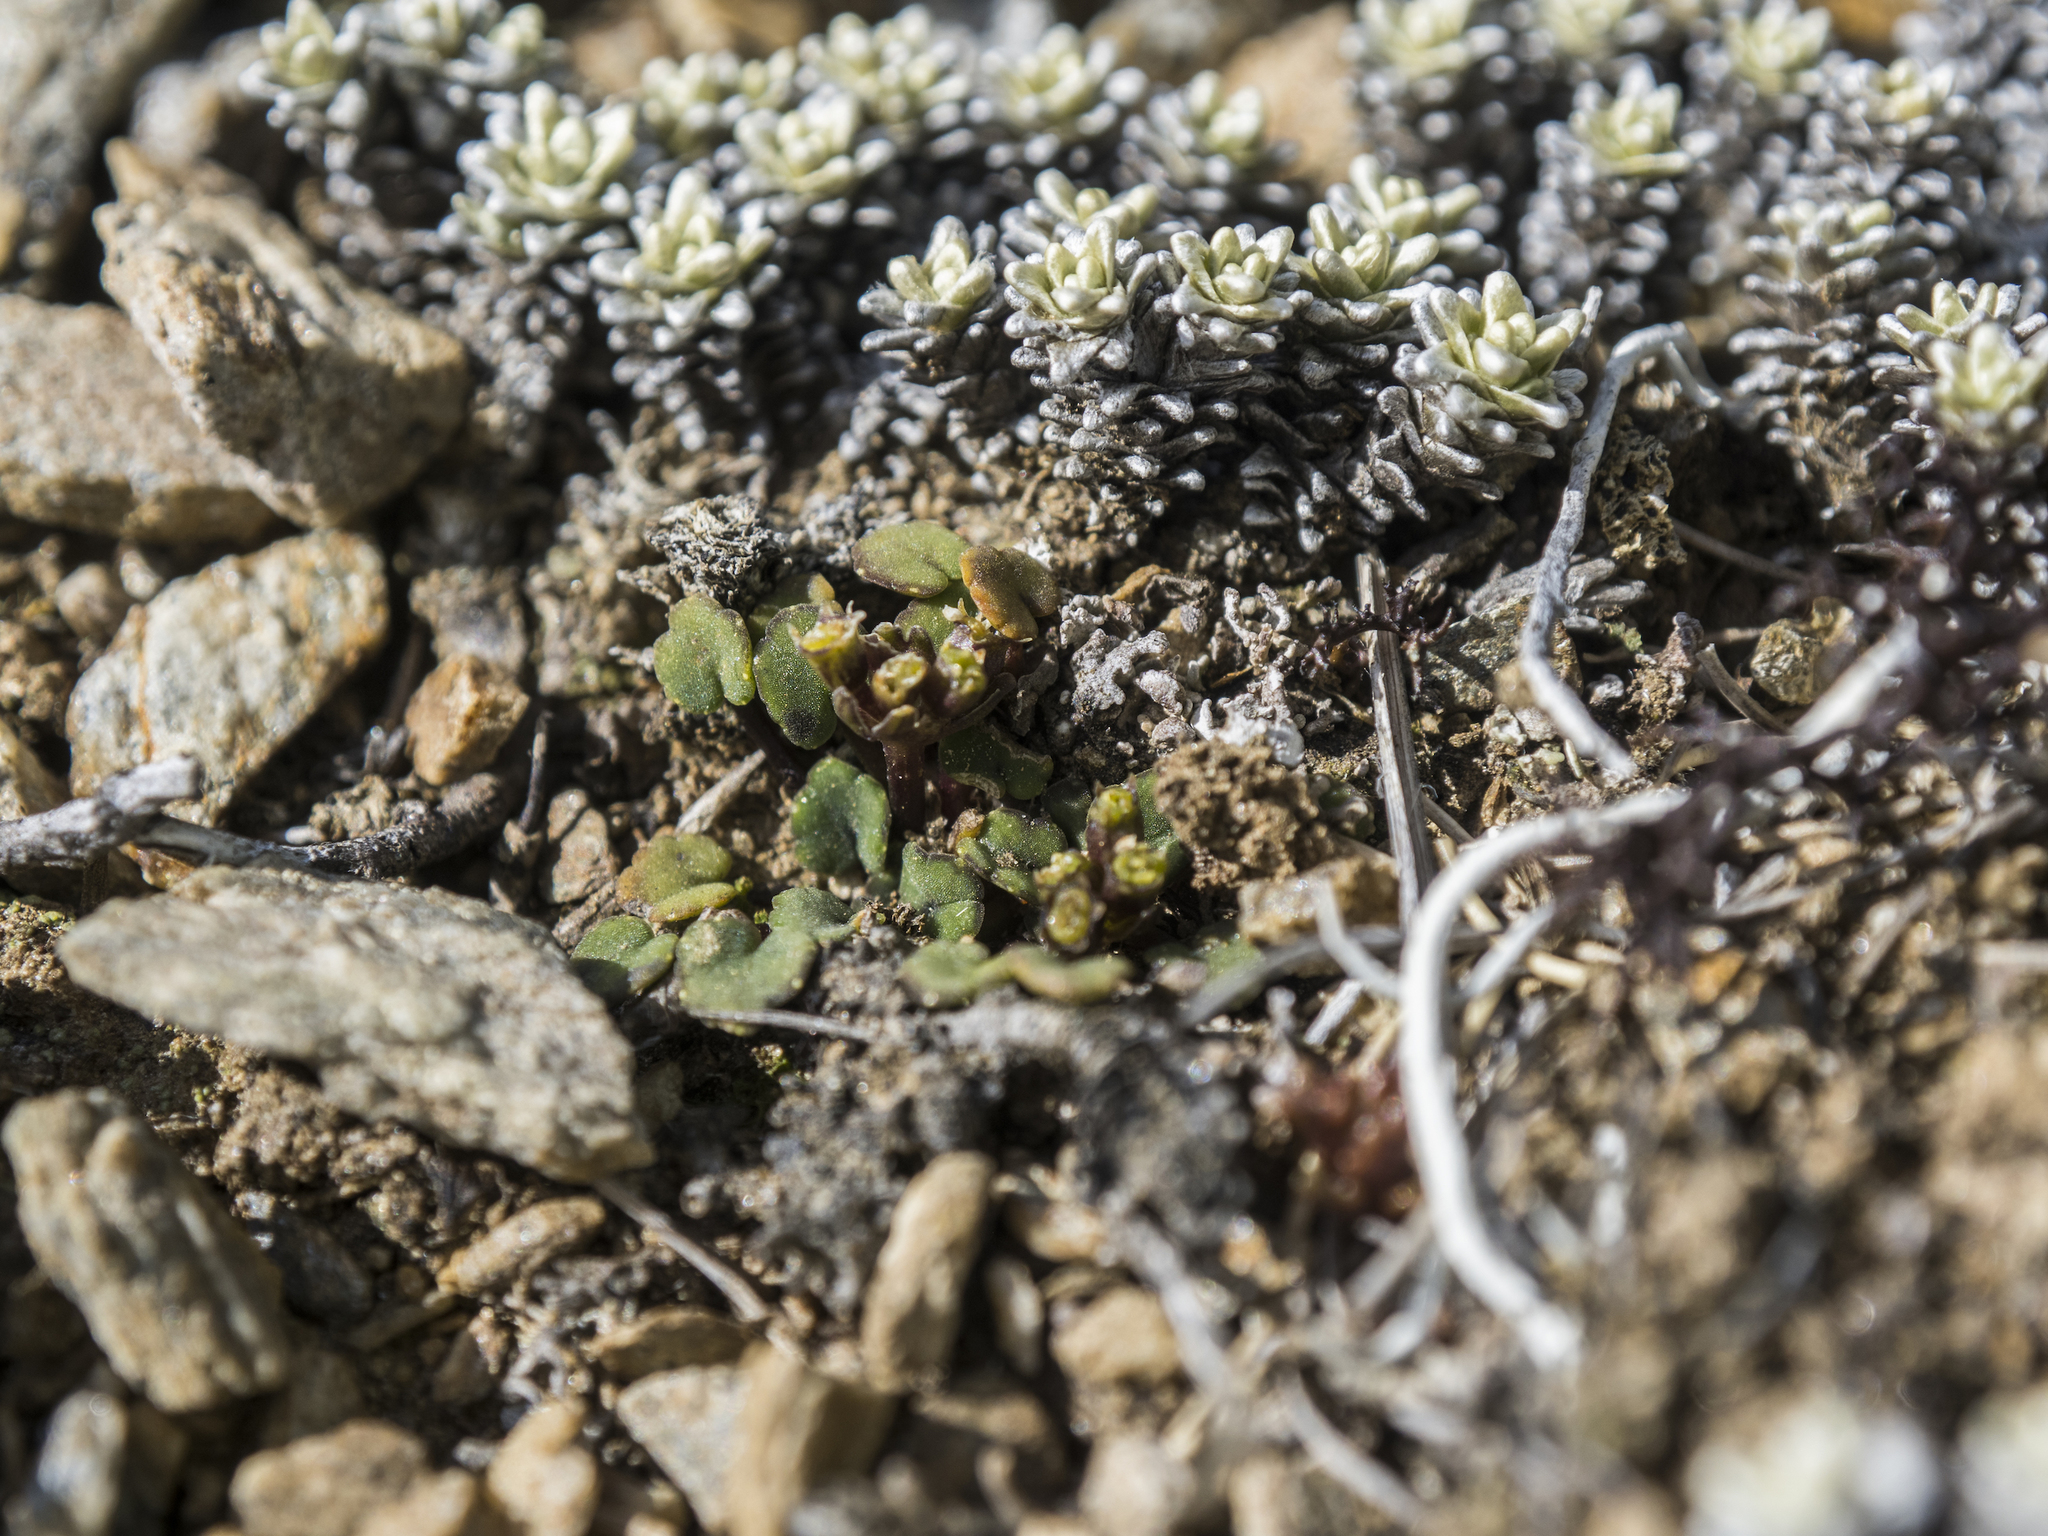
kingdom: Plantae
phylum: Tracheophyta
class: Magnoliopsida
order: Apiales
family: Apiaceae
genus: Azorella
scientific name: Azorella exigua
